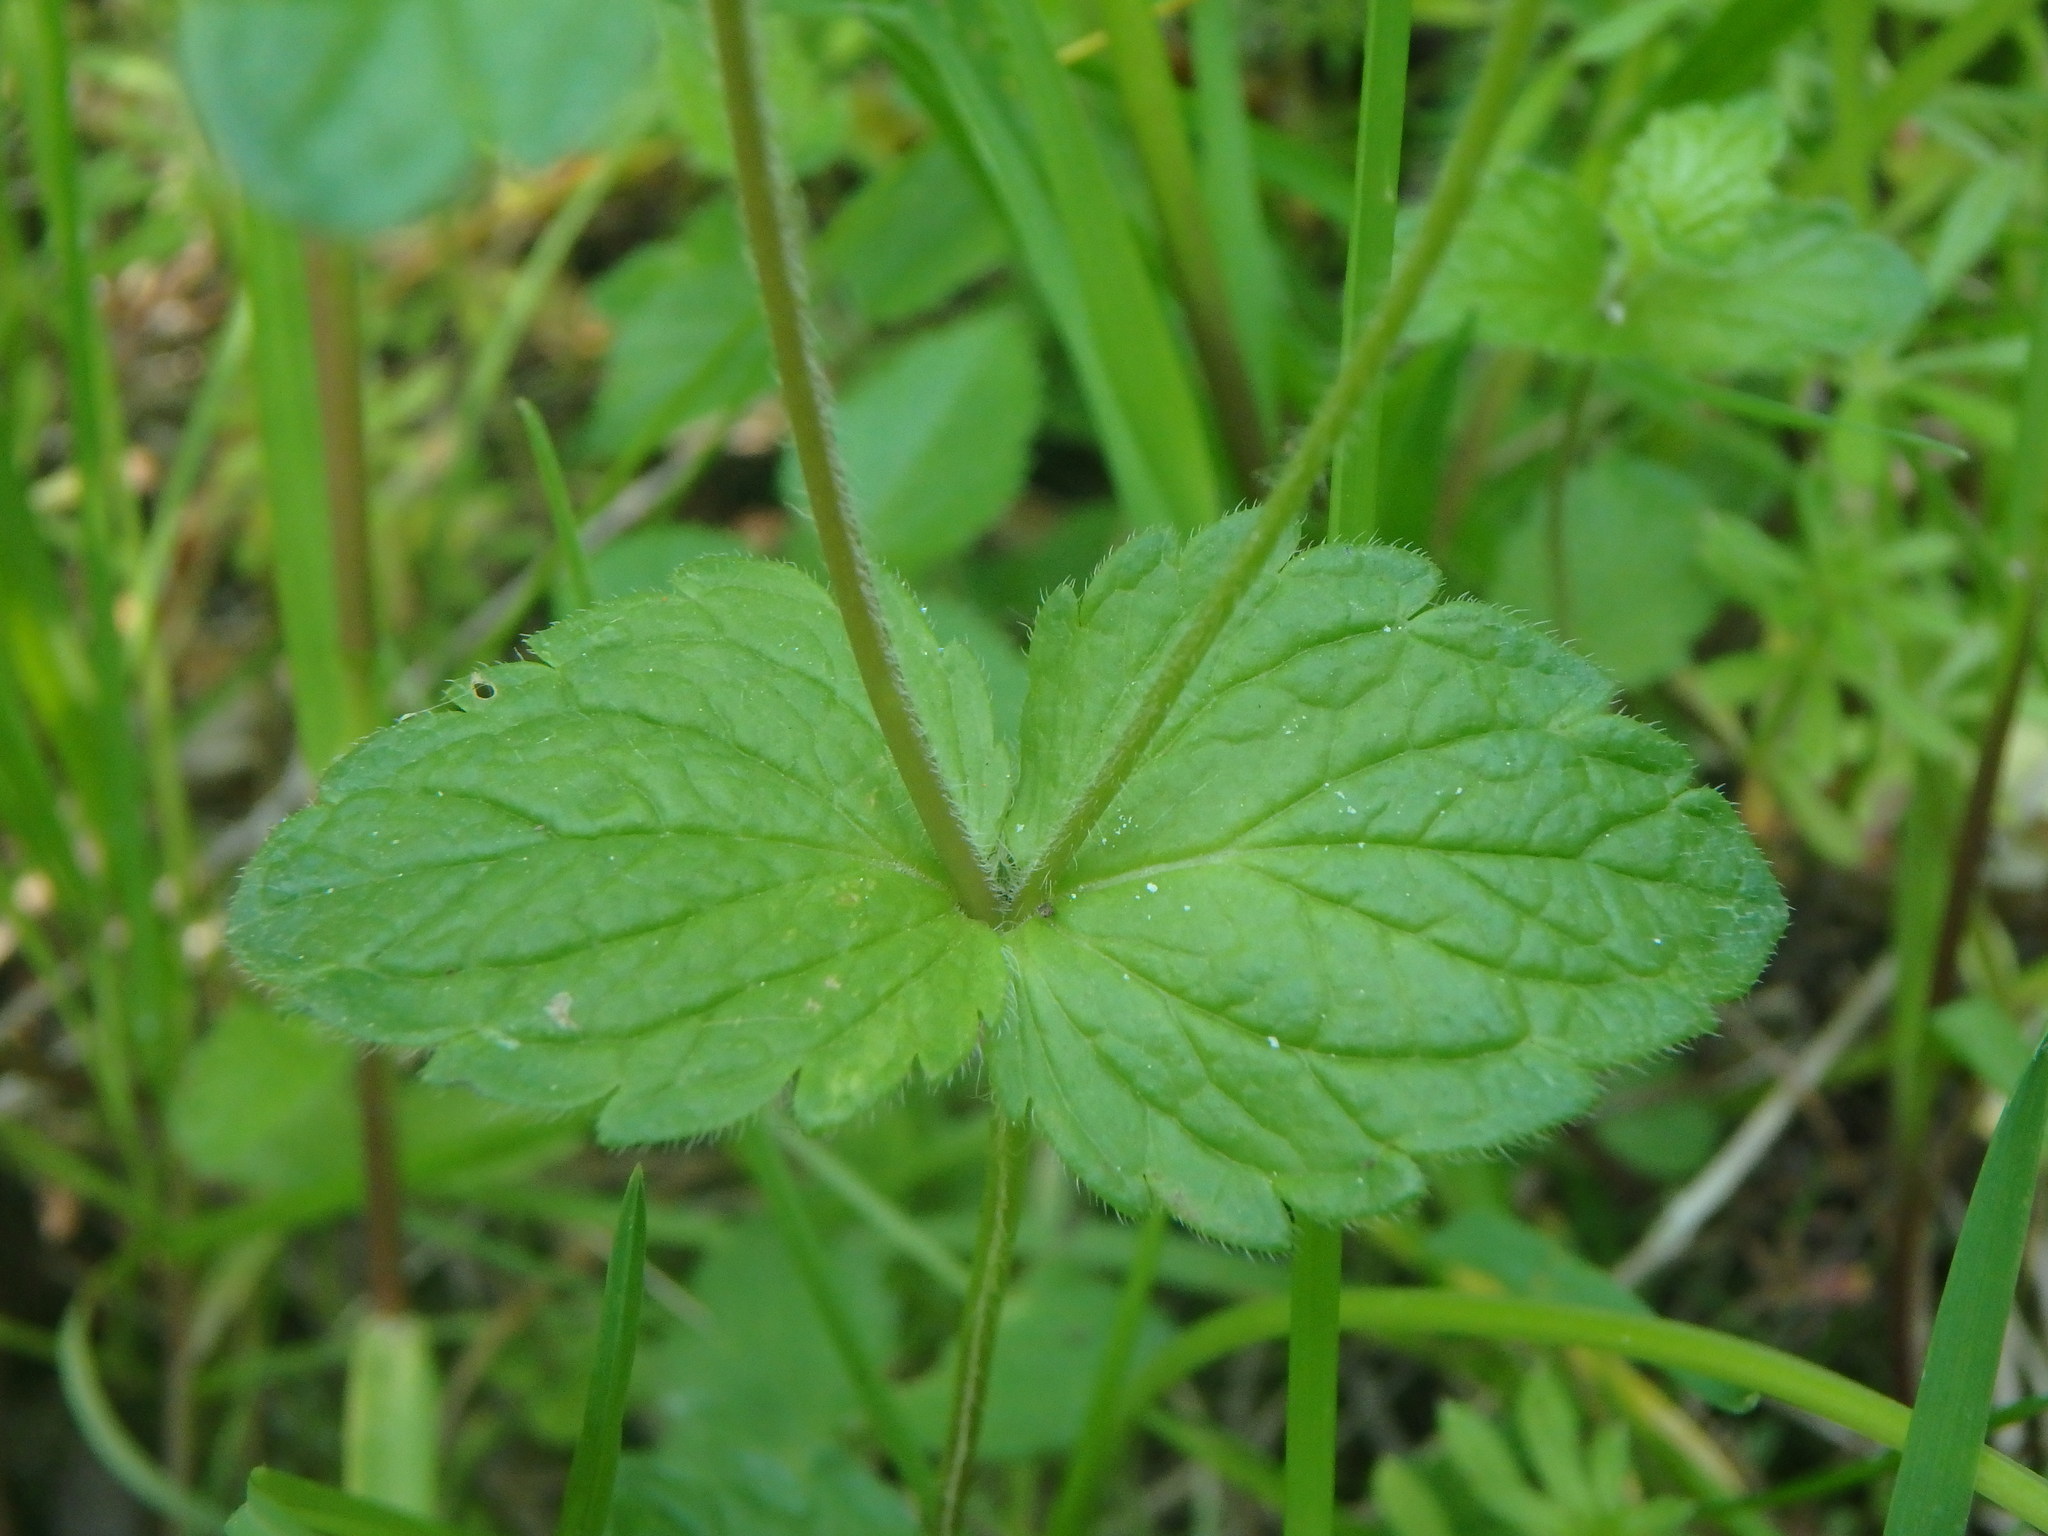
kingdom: Plantae
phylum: Tracheophyta
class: Magnoliopsida
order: Lamiales
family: Plantaginaceae
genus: Veronica
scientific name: Veronica chamaedrys
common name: Germander speedwell
